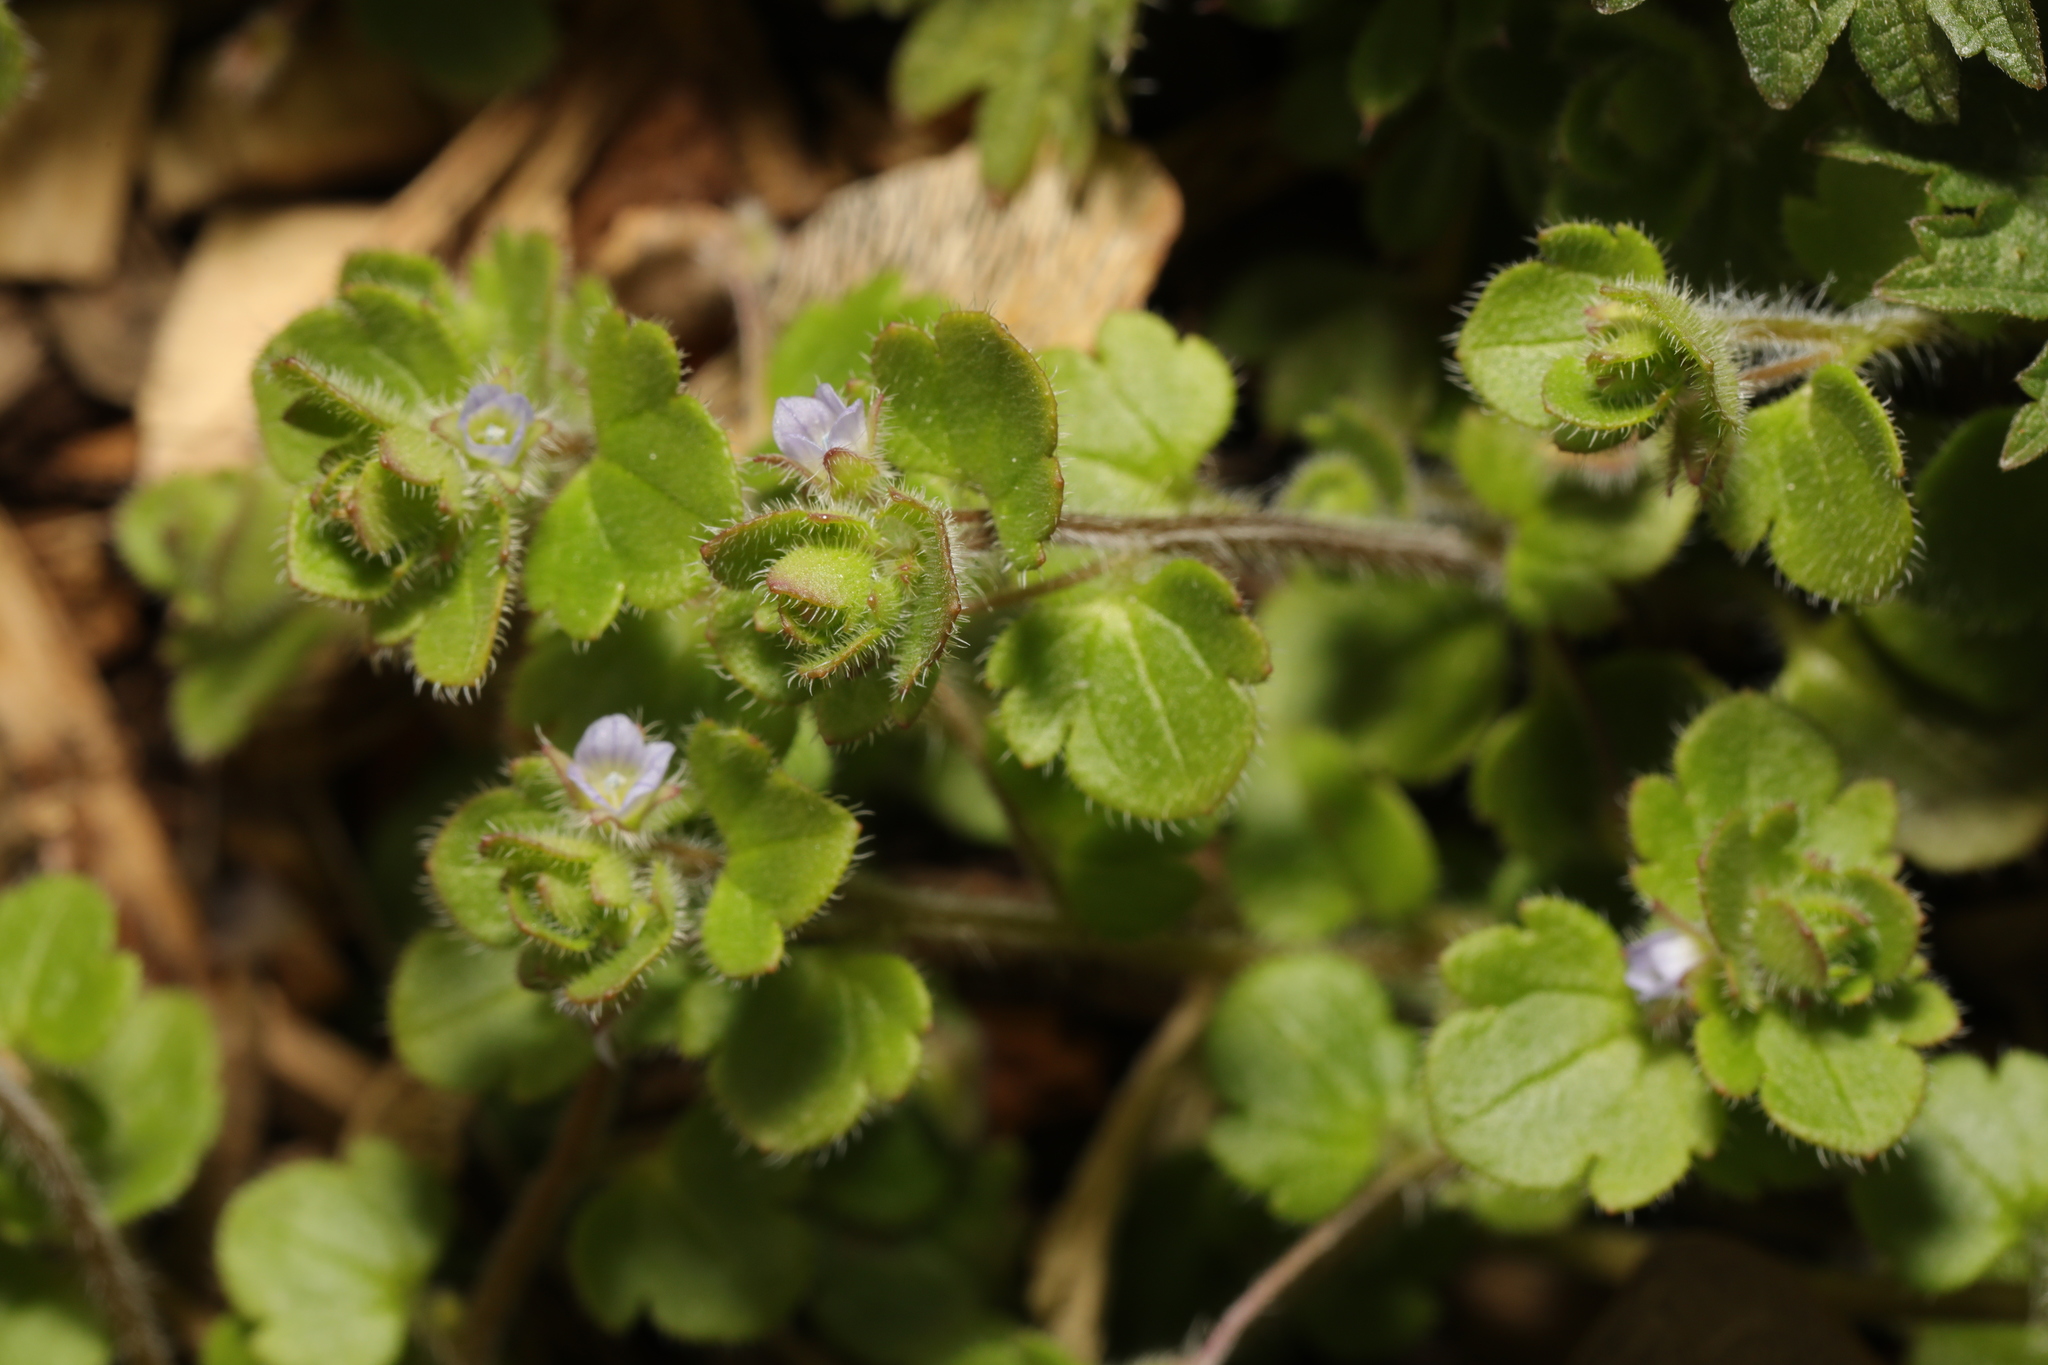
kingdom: Plantae
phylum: Tracheophyta
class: Magnoliopsida
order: Lamiales
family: Plantaginaceae
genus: Veronica
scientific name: Veronica hederifolia
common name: Ivy-leaved speedwell
